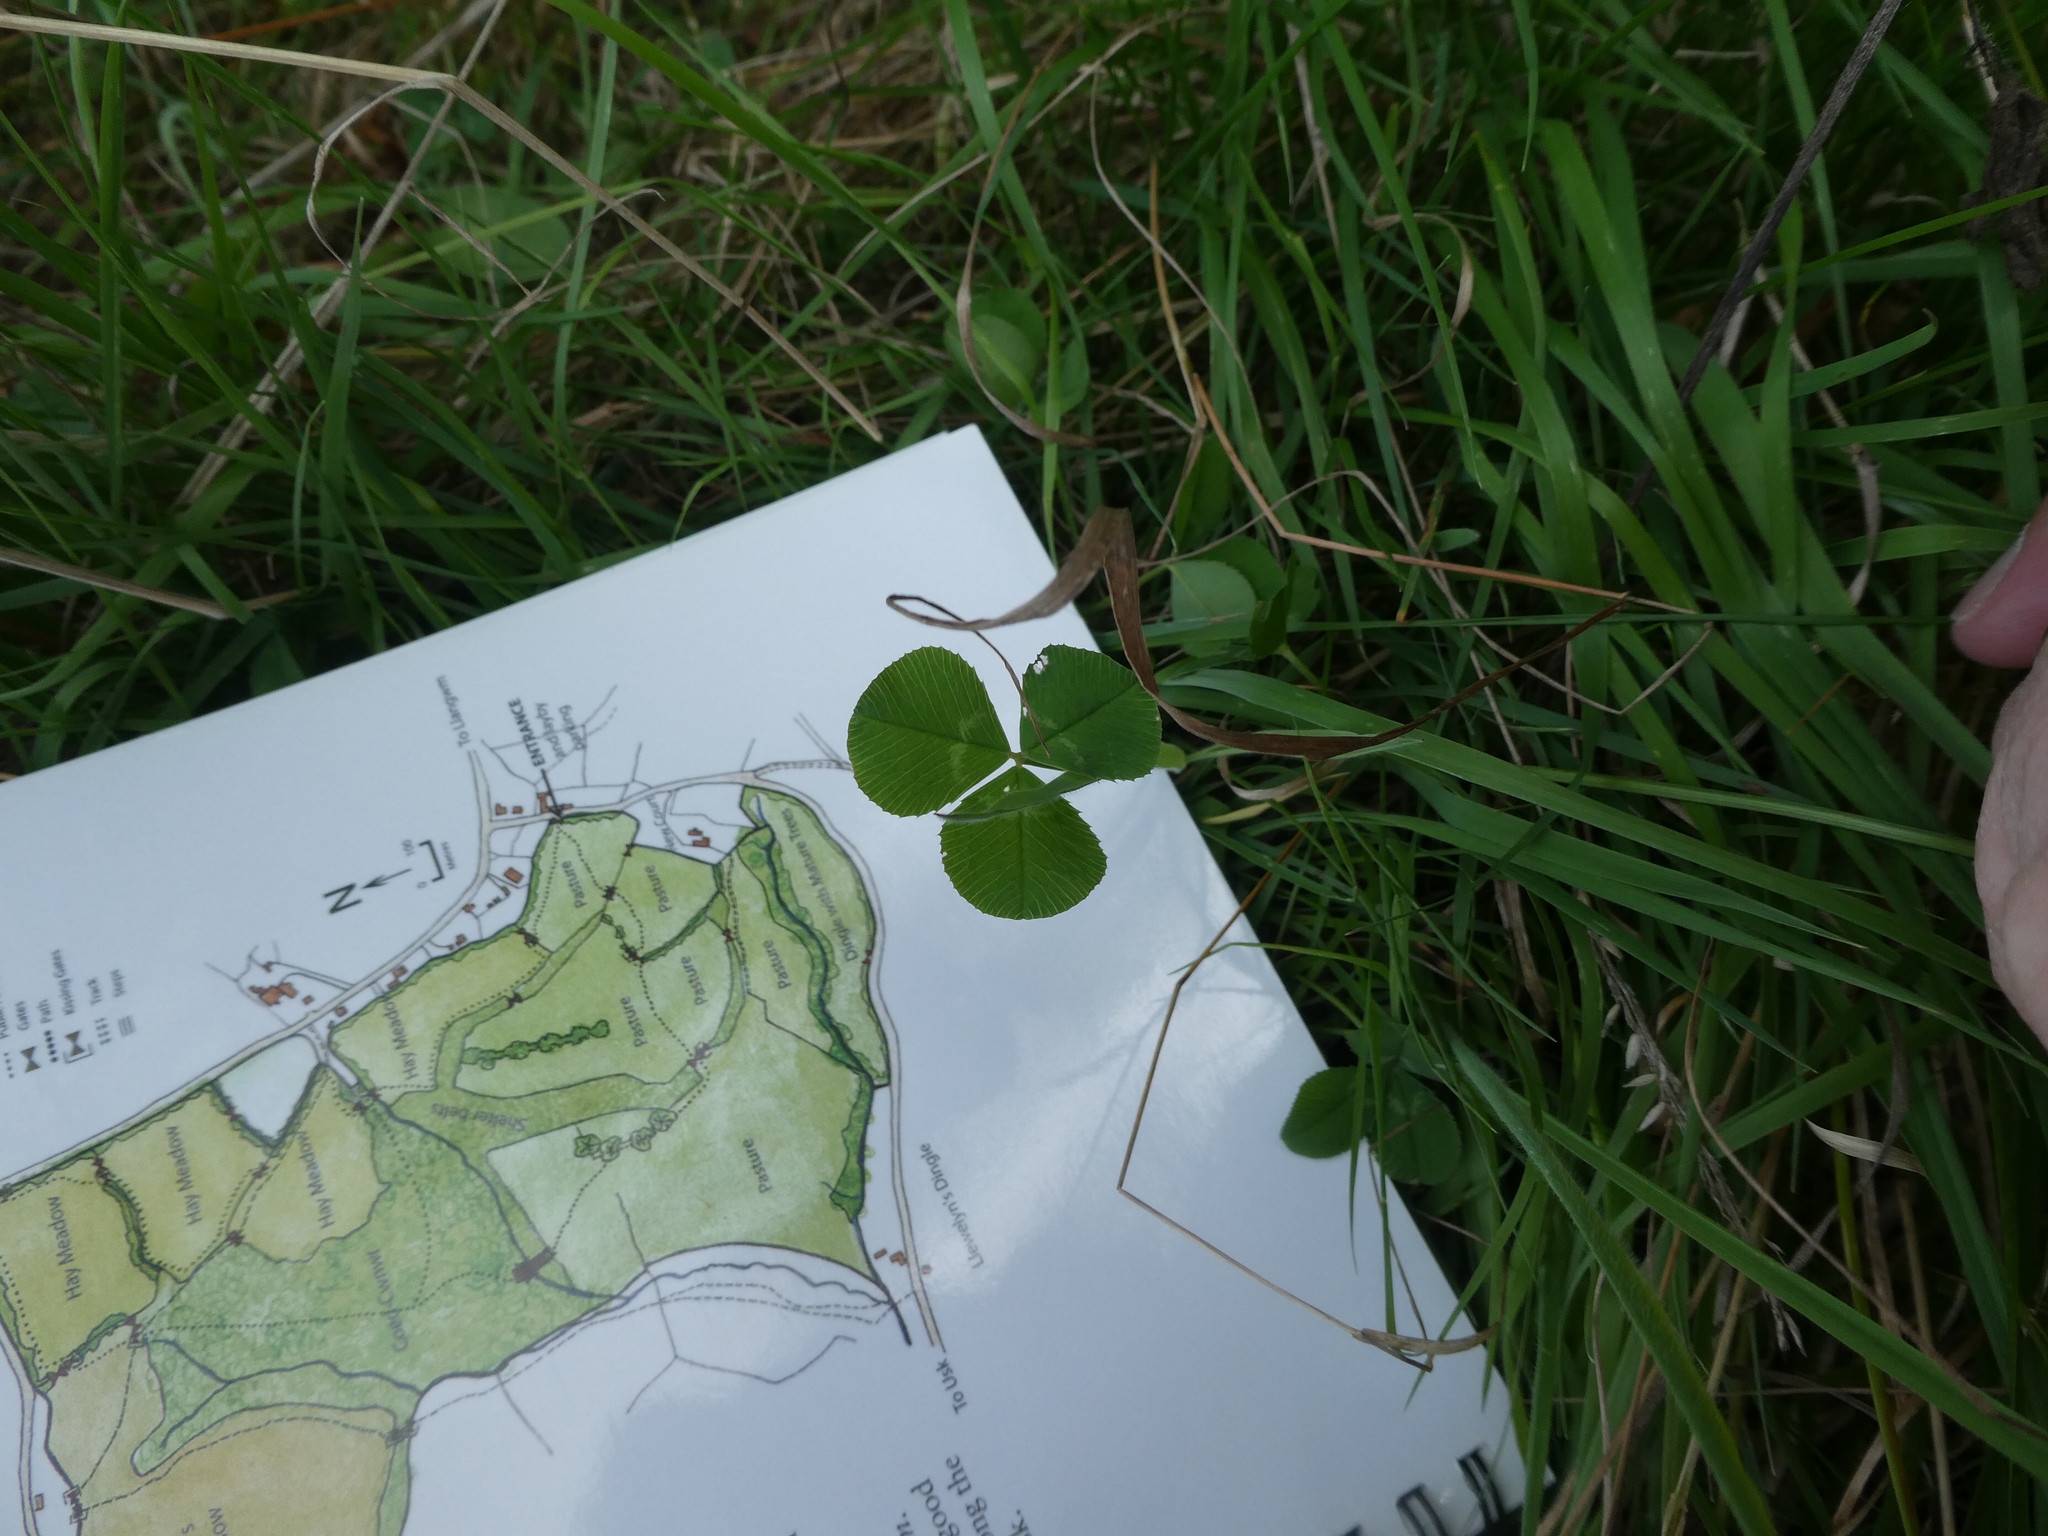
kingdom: Plantae
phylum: Tracheophyta
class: Magnoliopsida
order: Fabales
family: Fabaceae
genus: Trifolium
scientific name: Trifolium repens
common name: White clover
